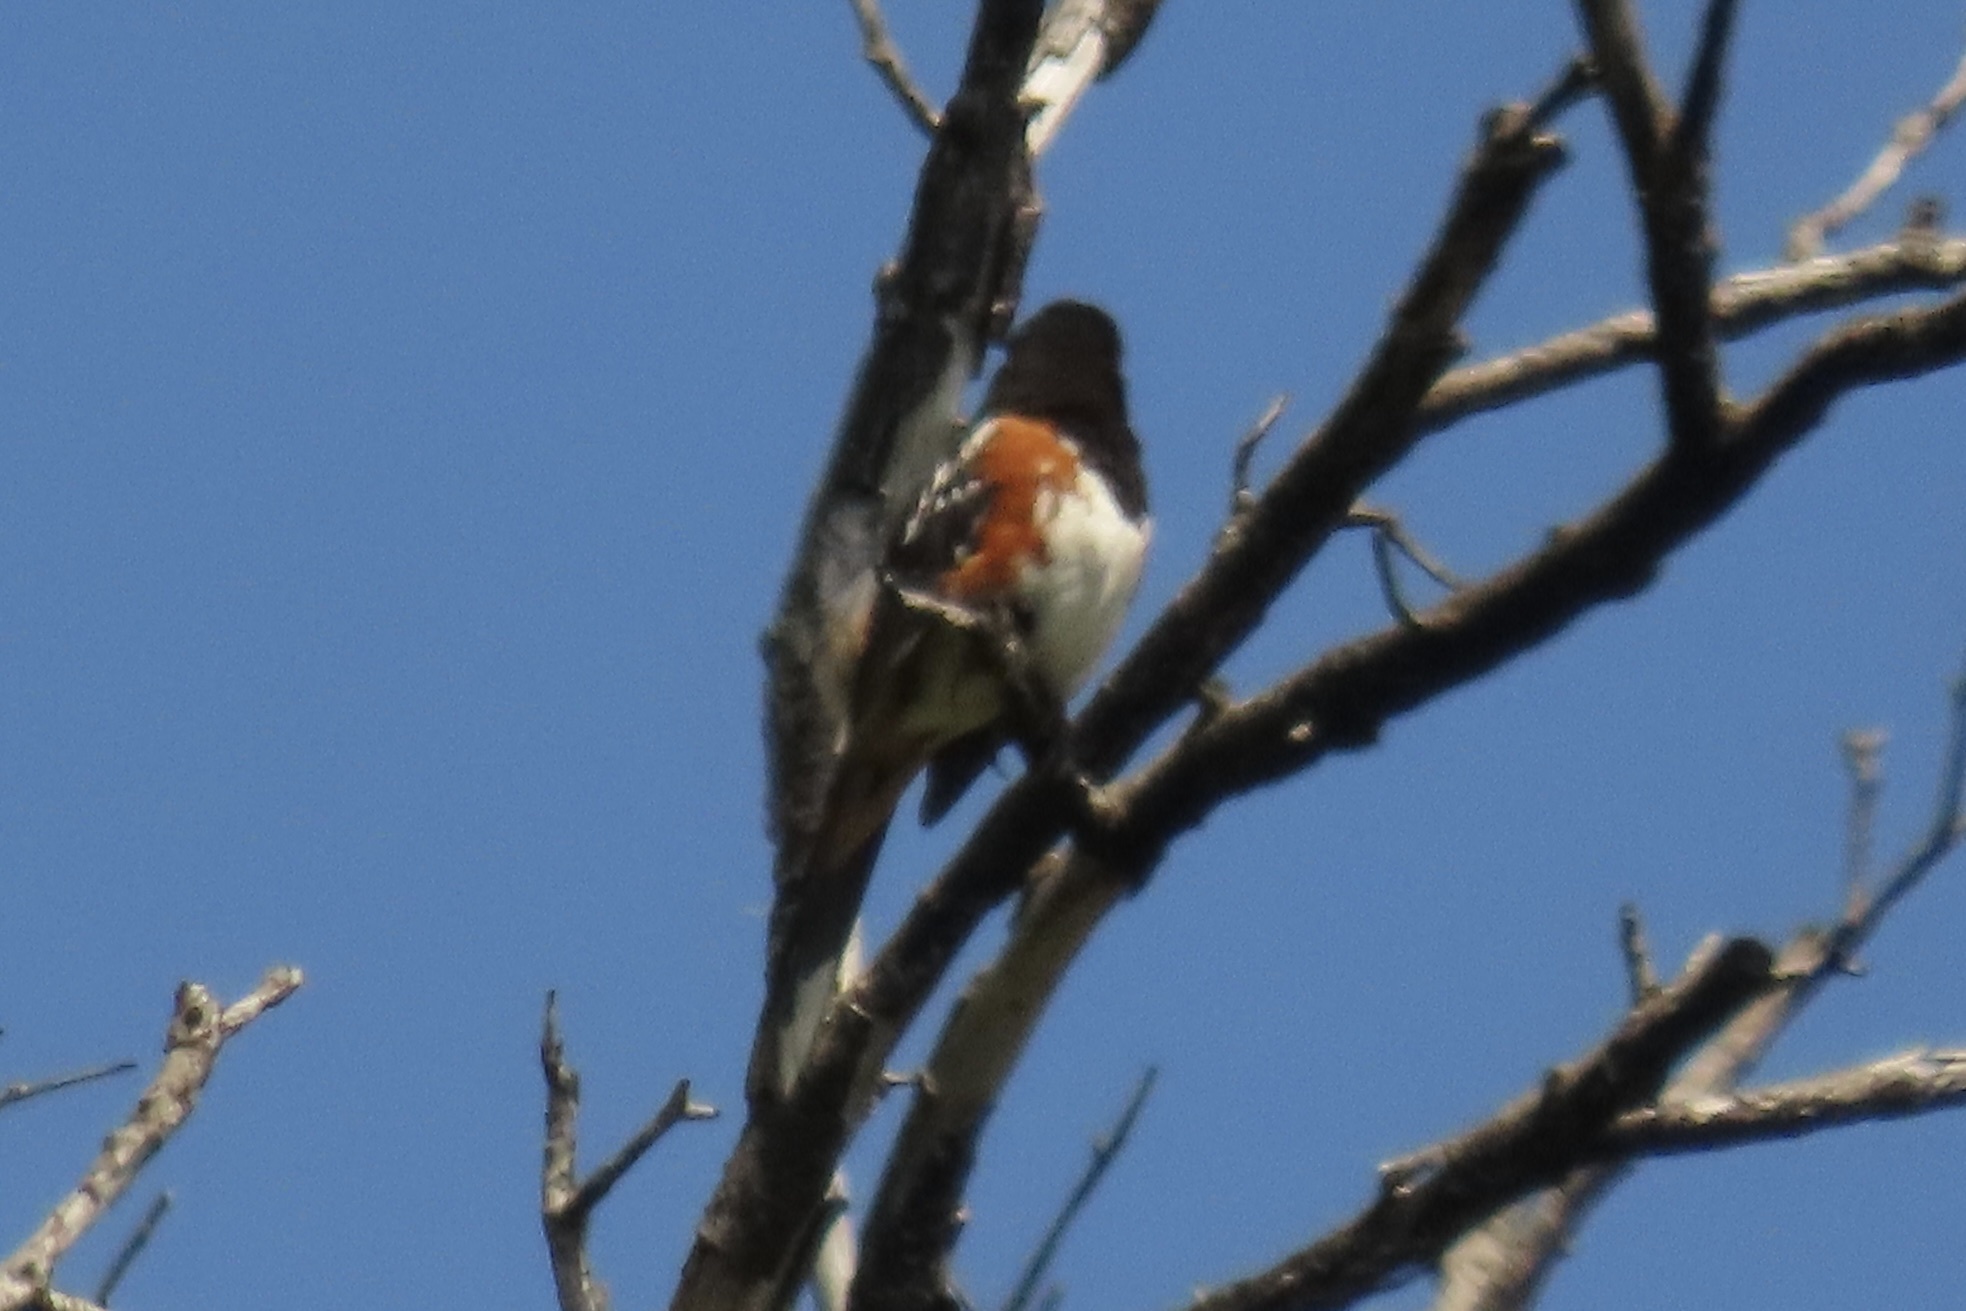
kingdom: Animalia
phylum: Chordata
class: Aves
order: Passeriformes
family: Passerellidae
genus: Pipilo
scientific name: Pipilo maculatus
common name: Spotted towhee
